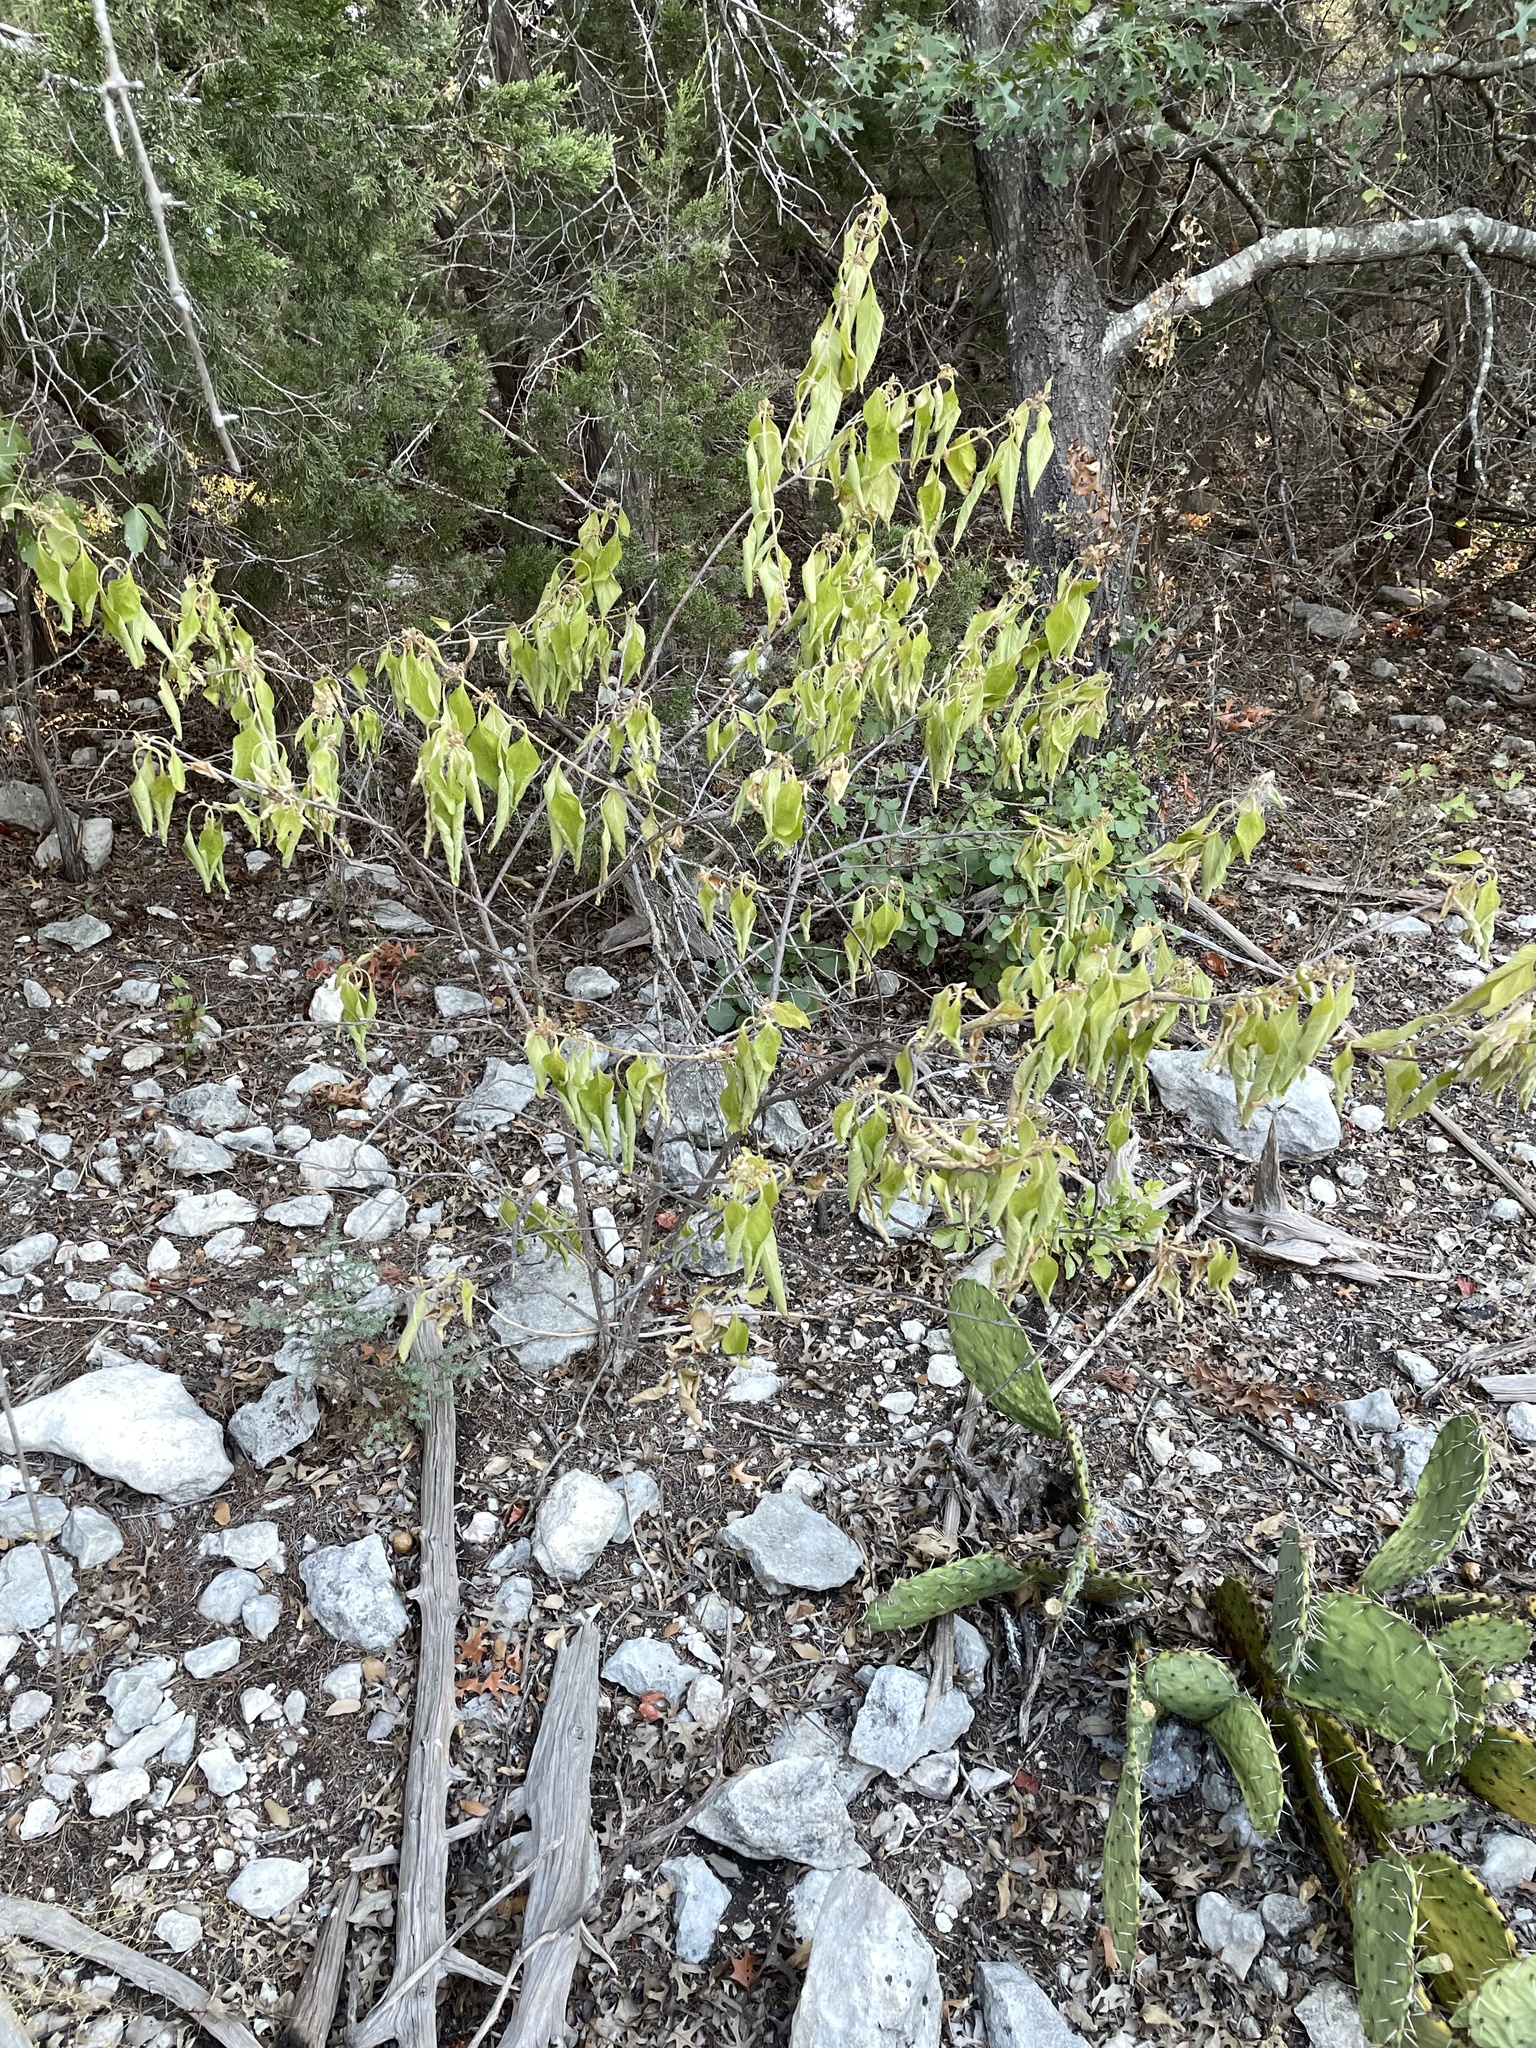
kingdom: Plantae
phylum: Tracheophyta
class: Magnoliopsida
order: Lamiales
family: Lamiaceae
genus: Callicarpa
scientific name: Callicarpa americana
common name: American beautyberry
